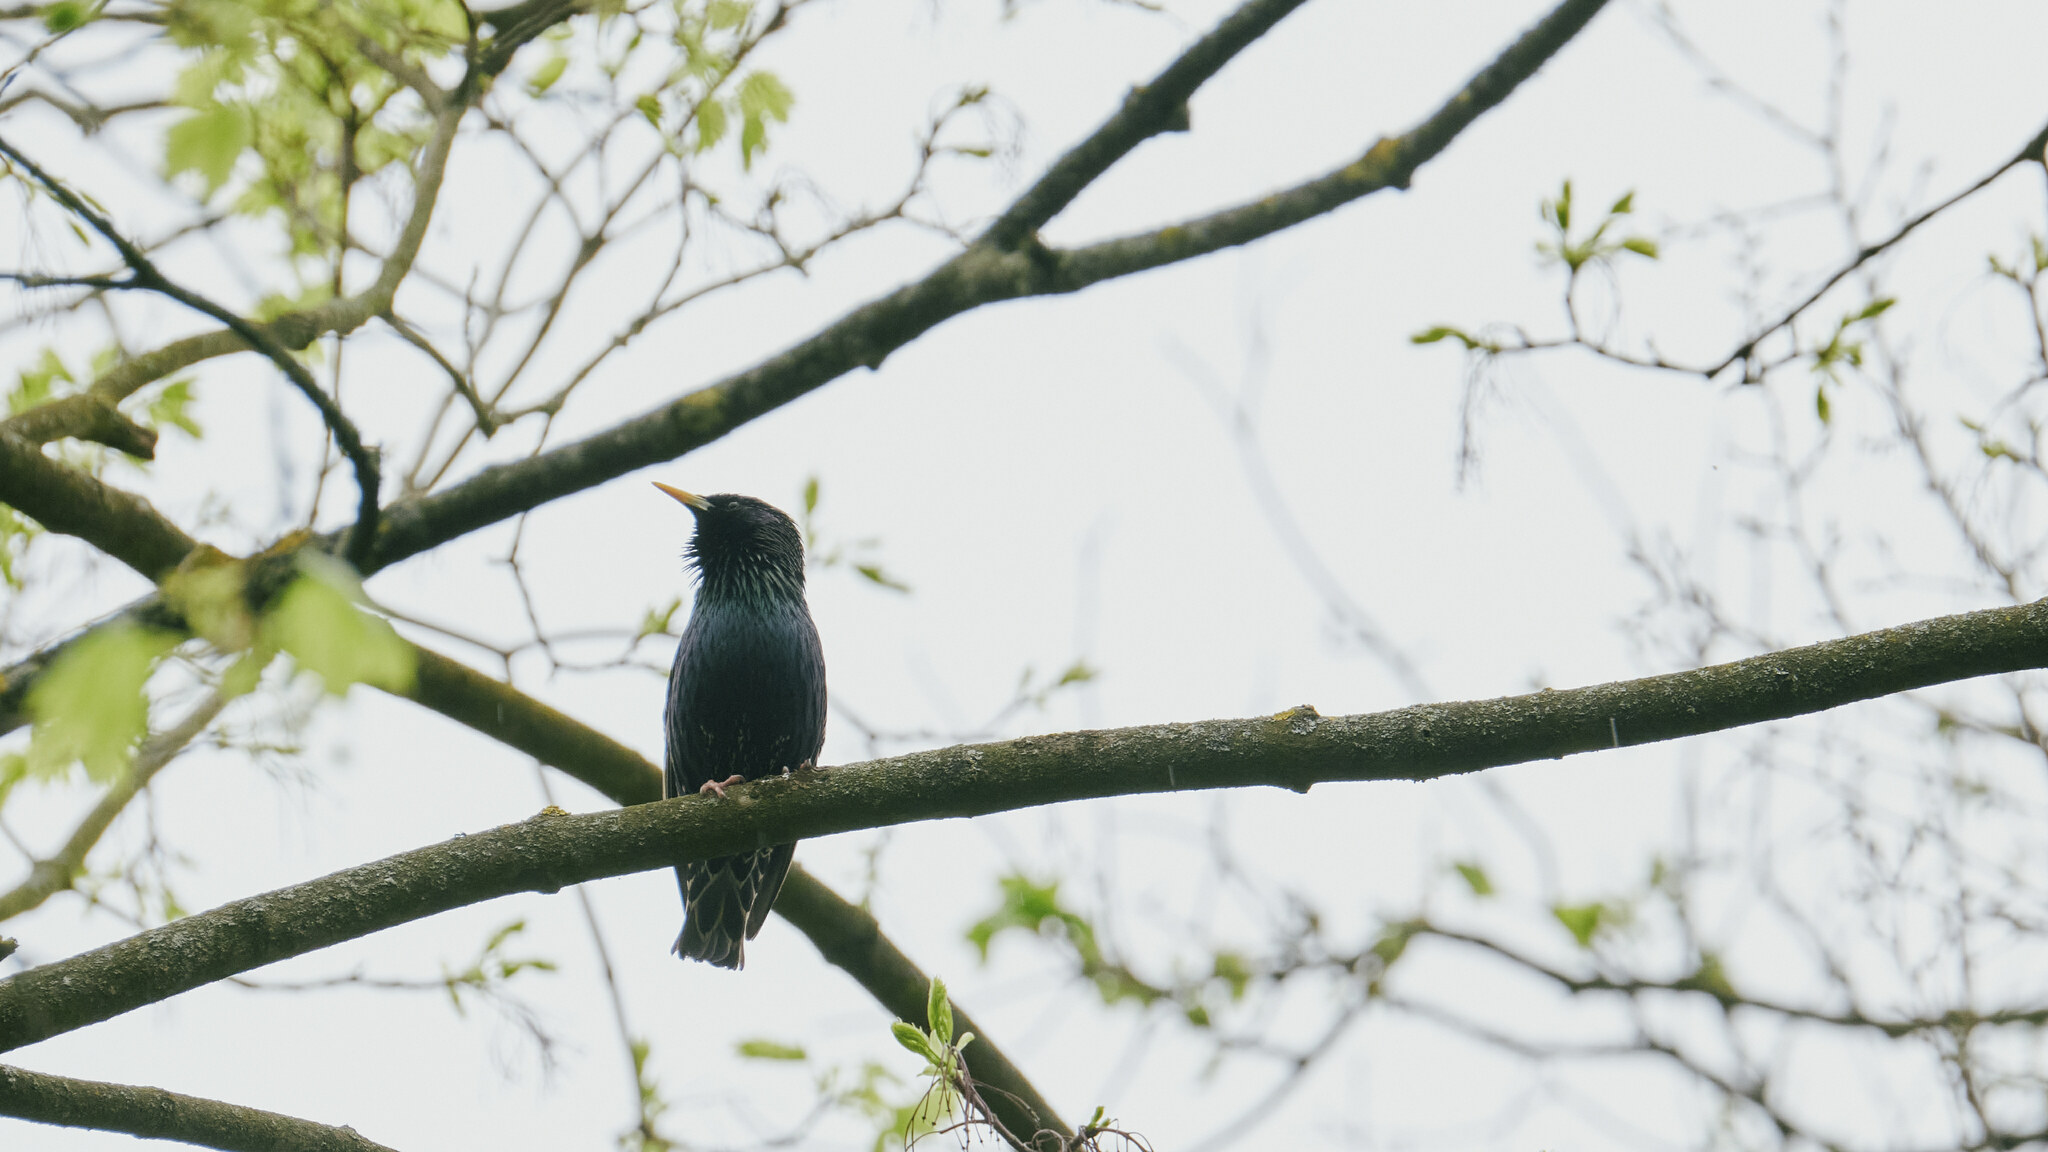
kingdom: Animalia
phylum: Chordata
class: Aves
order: Passeriformes
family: Sturnidae
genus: Sturnus
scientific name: Sturnus vulgaris
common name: Common starling
